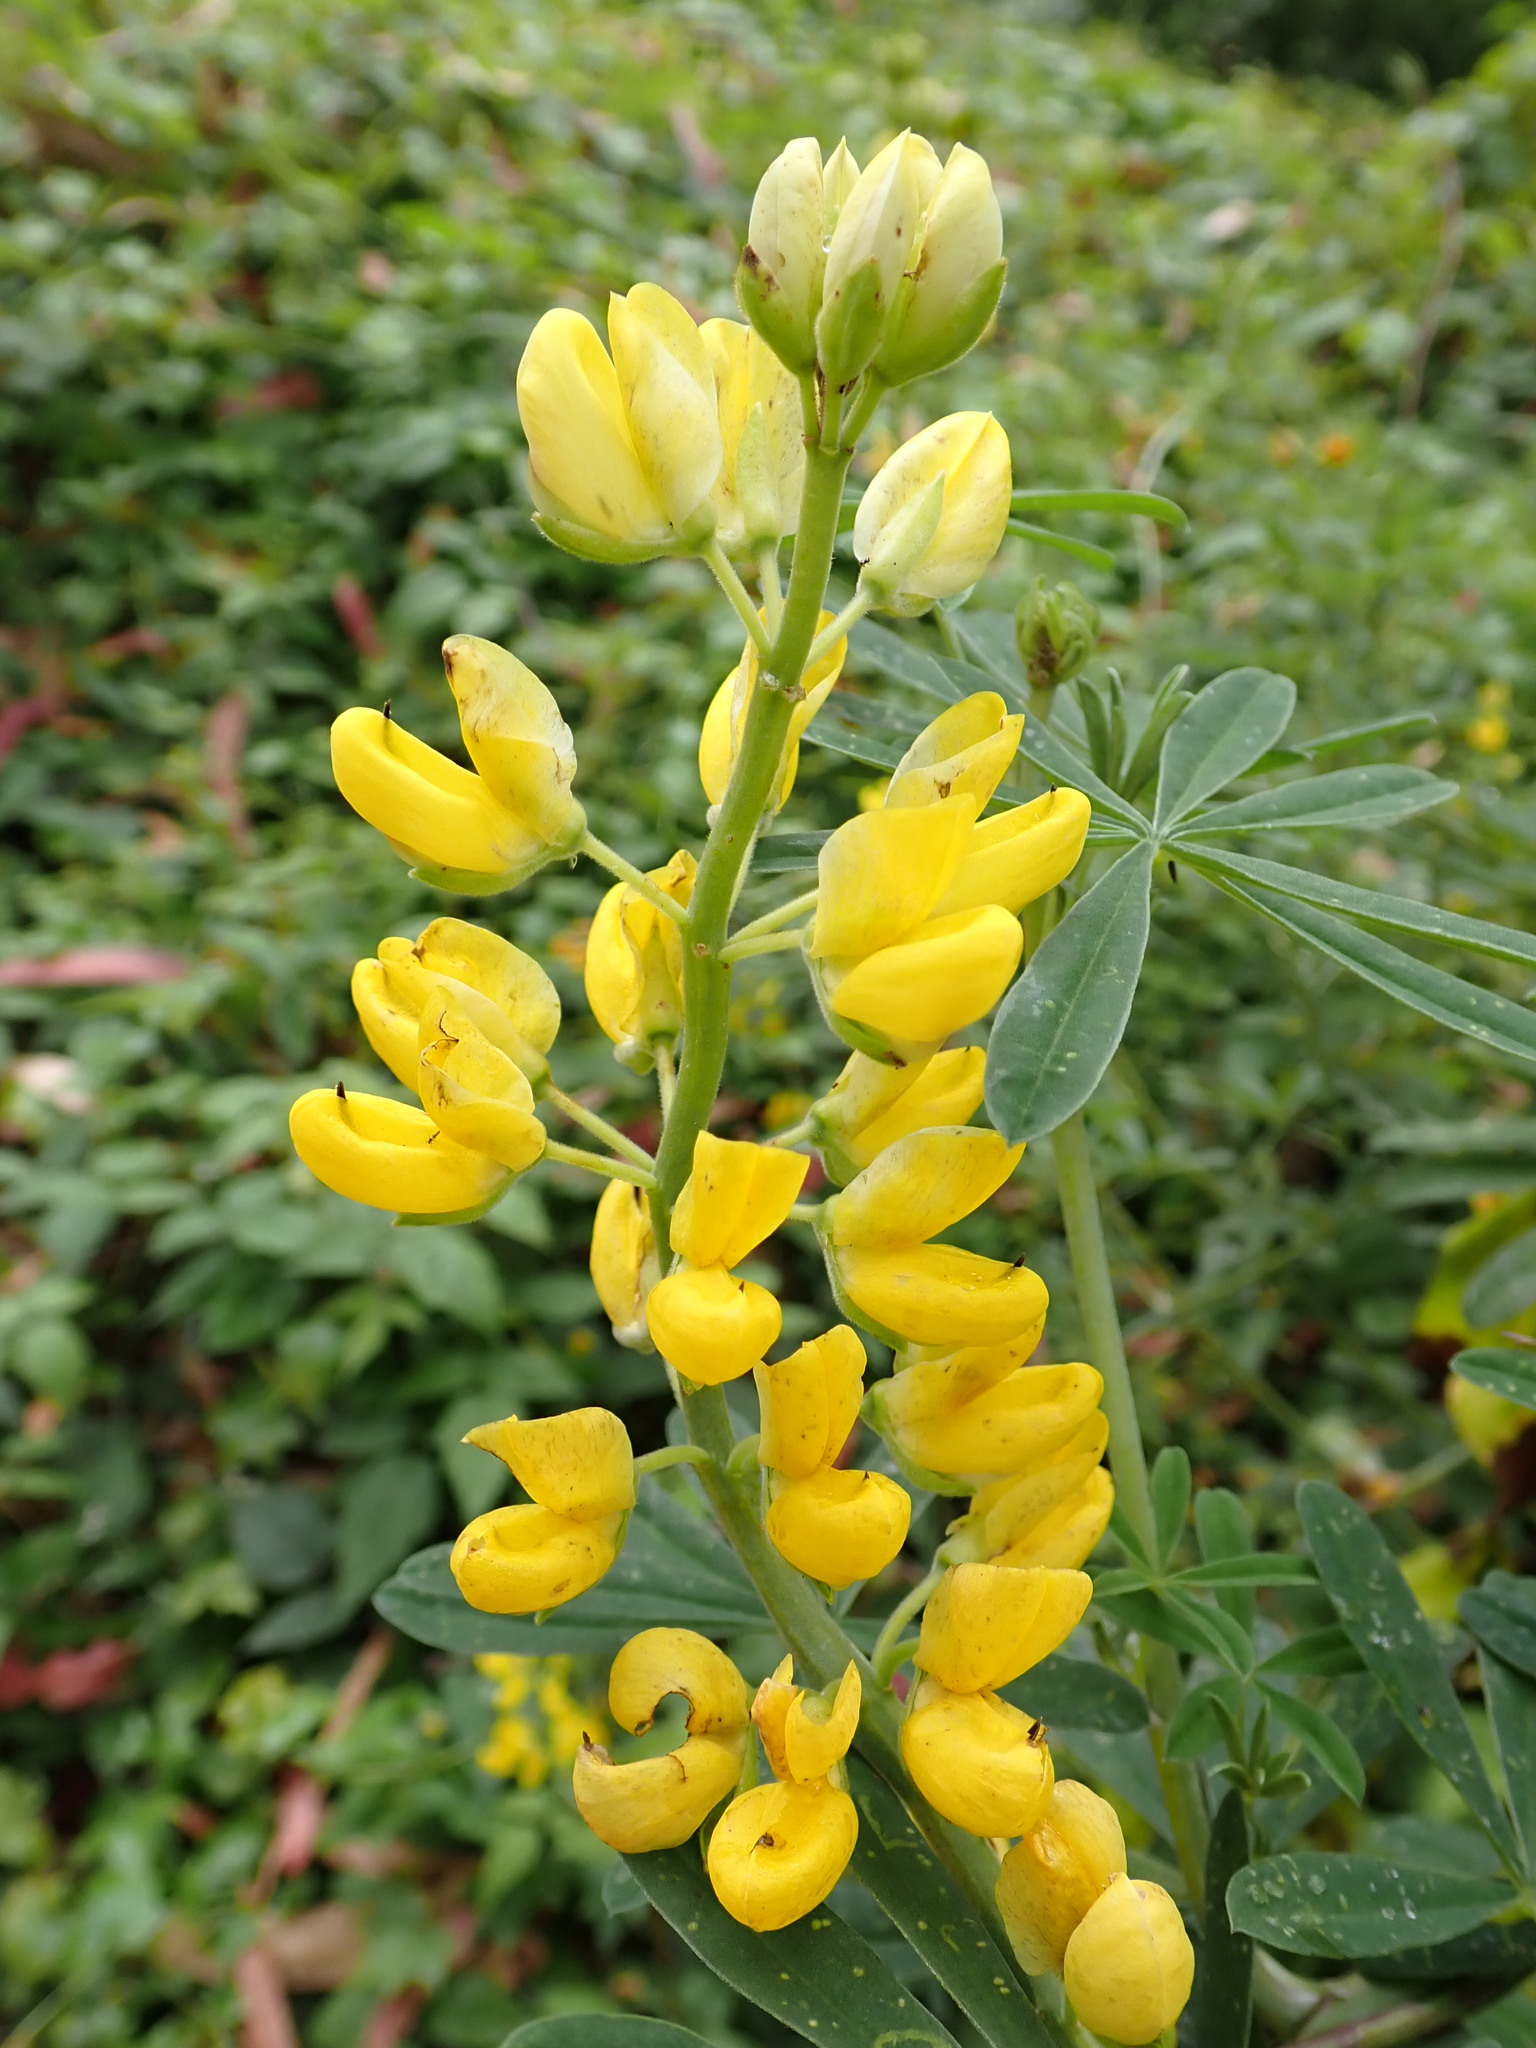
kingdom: Plantae
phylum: Tracheophyta
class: Magnoliopsida
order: Fabales
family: Fabaceae
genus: Lupinus
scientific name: Lupinus arboreus
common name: Yellow bush lupine
